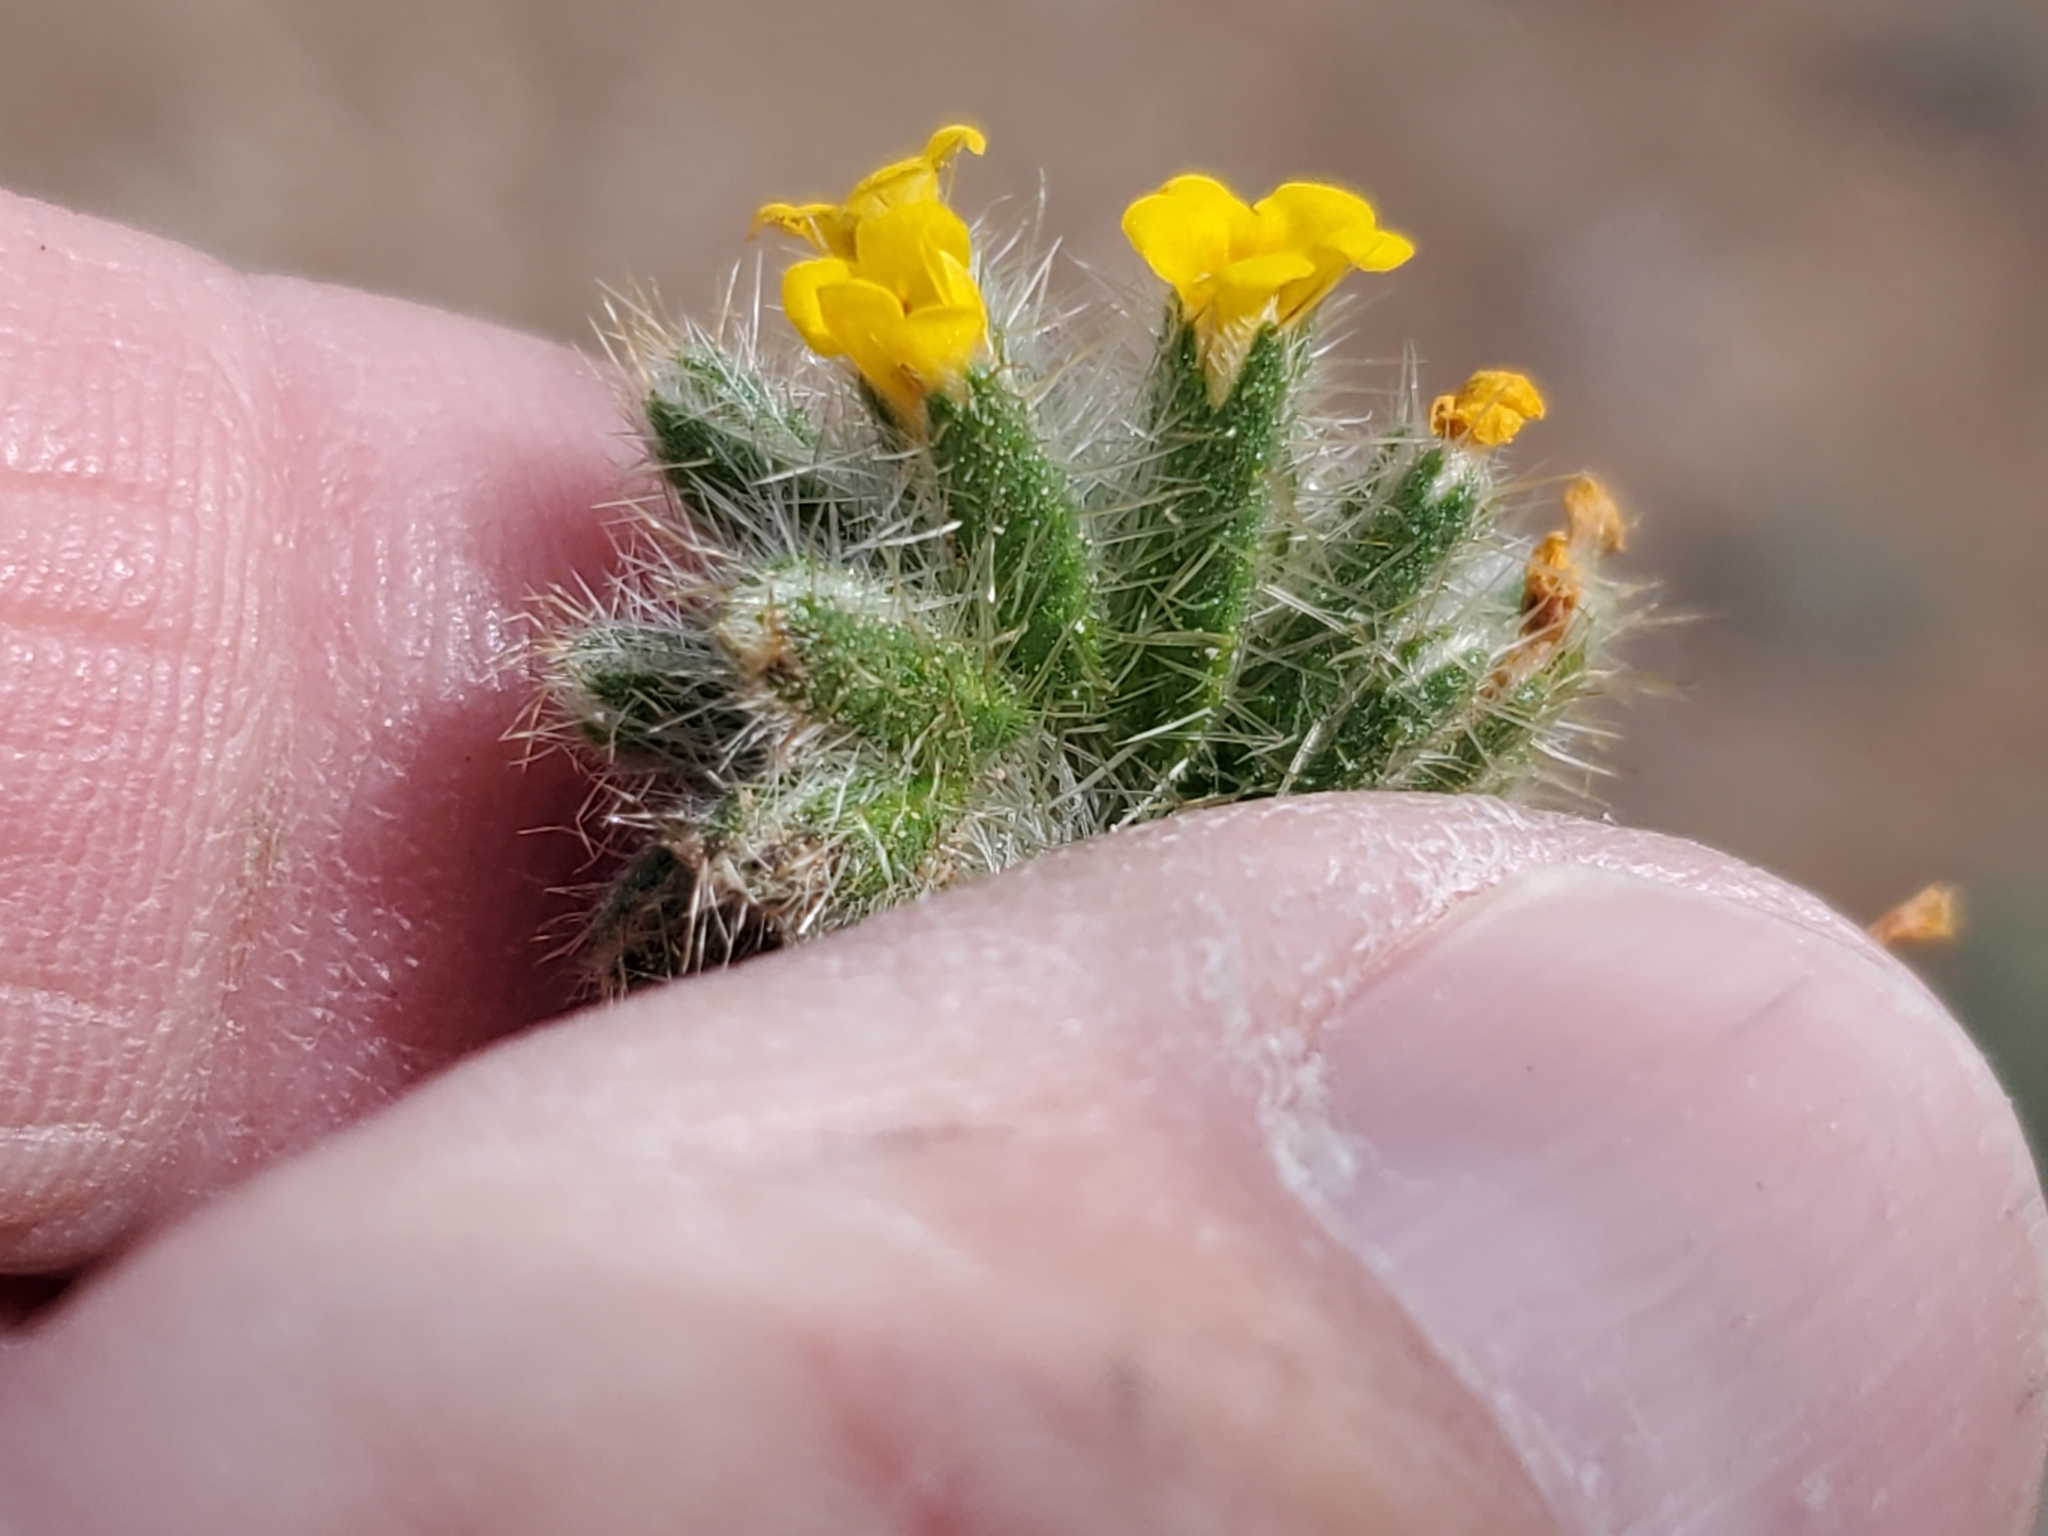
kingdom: Plantae
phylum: Tracheophyta
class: Magnoliopsida
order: Boraginales
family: Boraginaceae
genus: Amsinckia
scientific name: Amsinckia tessellata
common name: Tessellate fiddleneck
